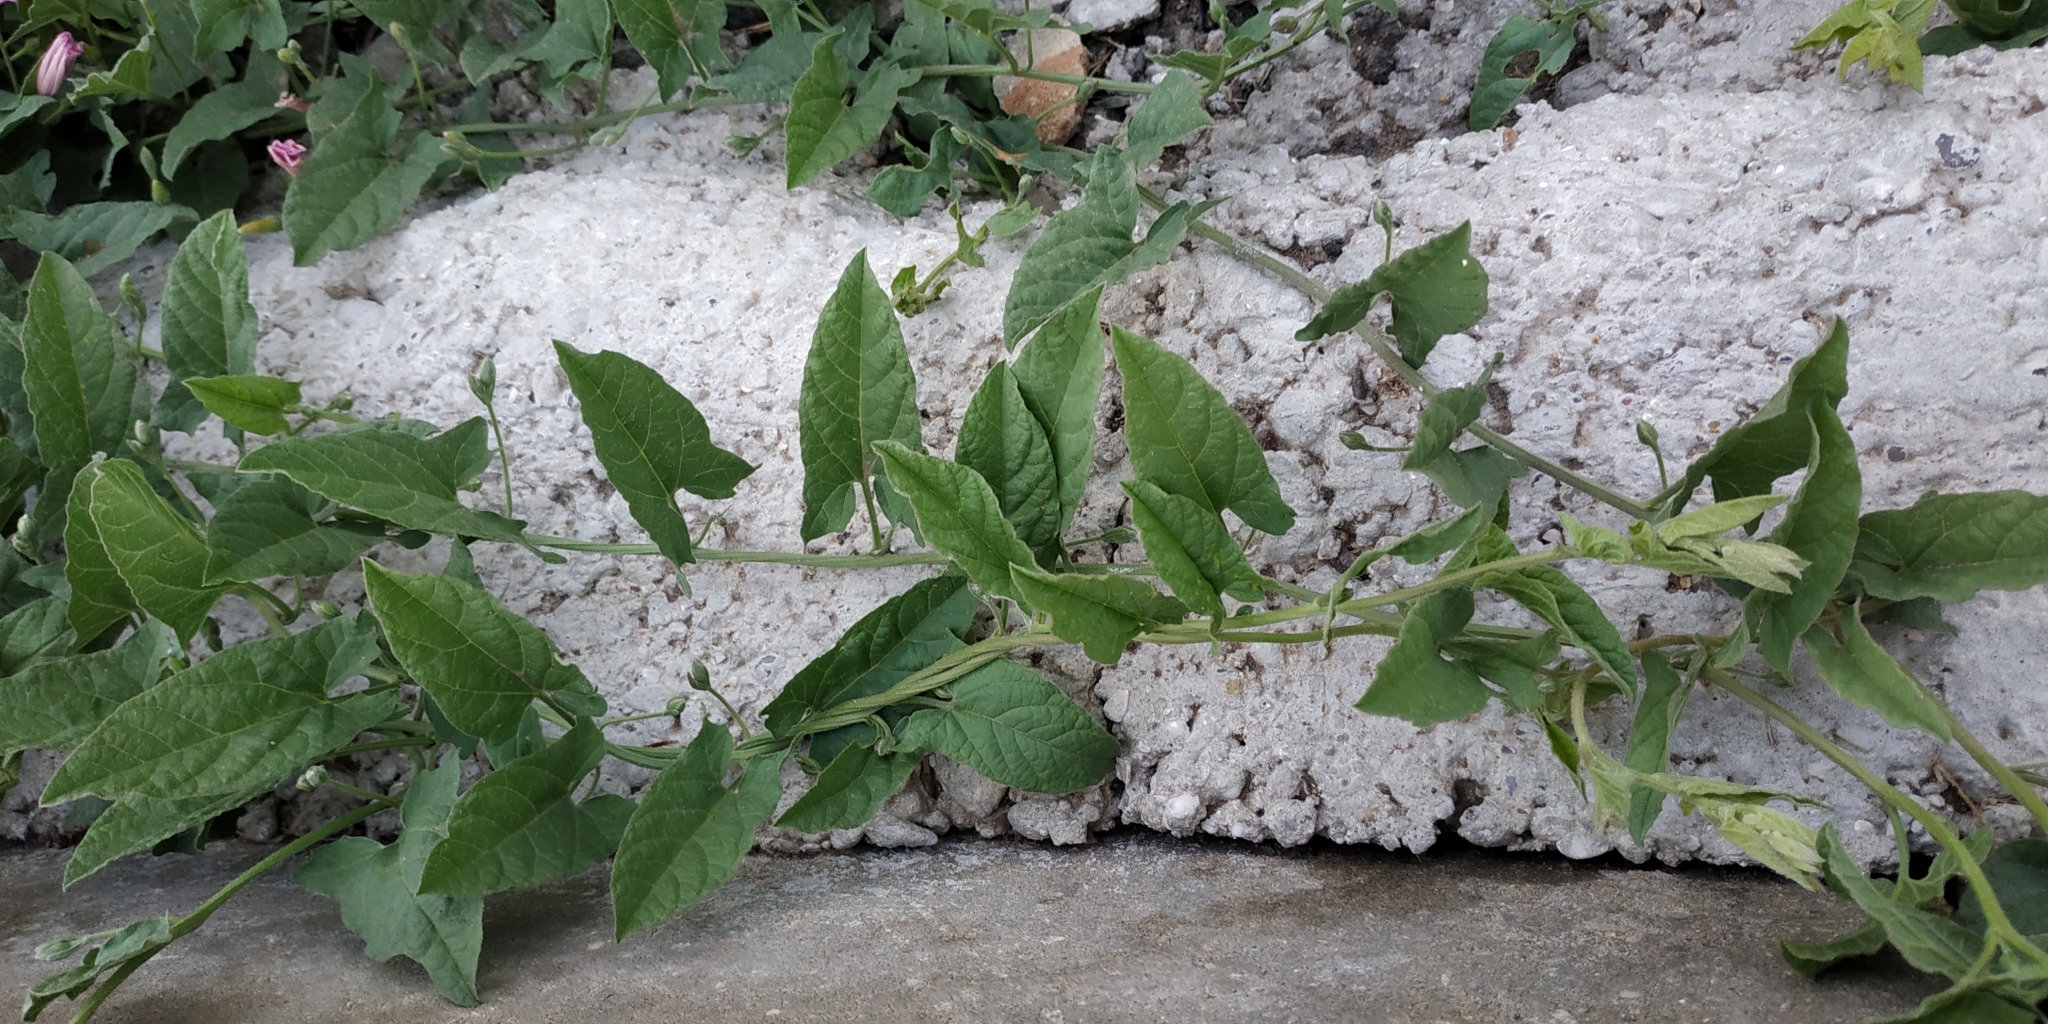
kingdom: Plantae
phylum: Tracheophyta
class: Magnoliopsida
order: Solanales
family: Convolvulaceae
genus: Convolvulus
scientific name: Convolvulus arvensis
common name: Field bindweed
